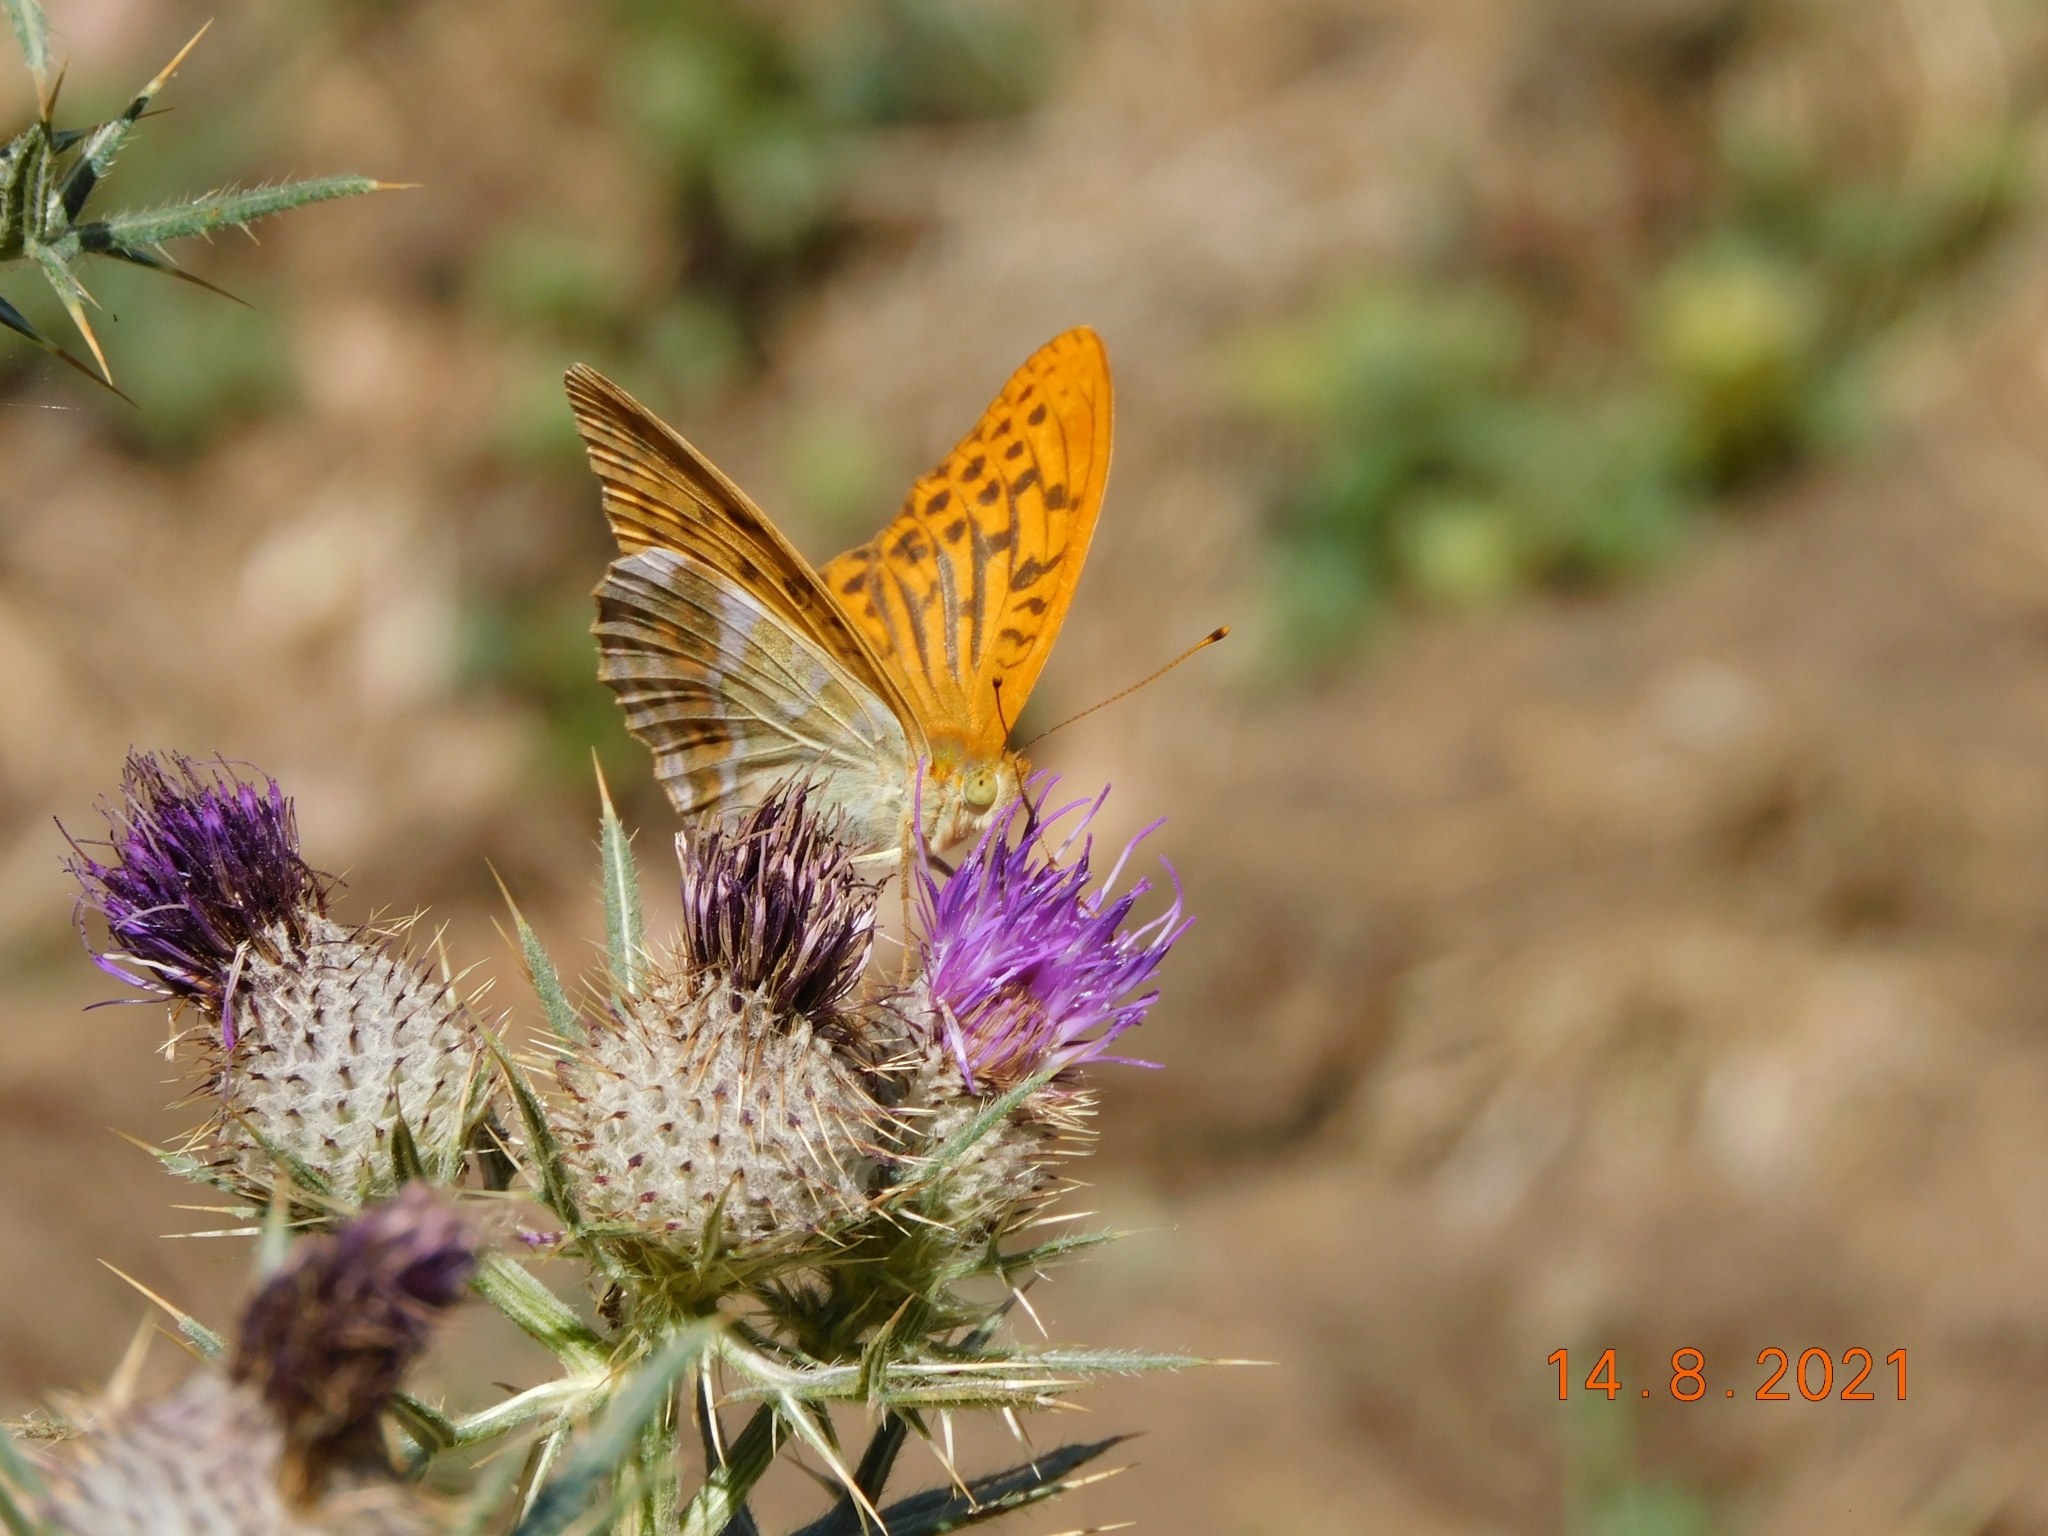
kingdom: Animalia
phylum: Arthropoda
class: Insecta
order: Lepidoptera
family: Nymphalidae
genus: Argynnis
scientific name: Argynnis paphia
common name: Silver-washed fritillary
